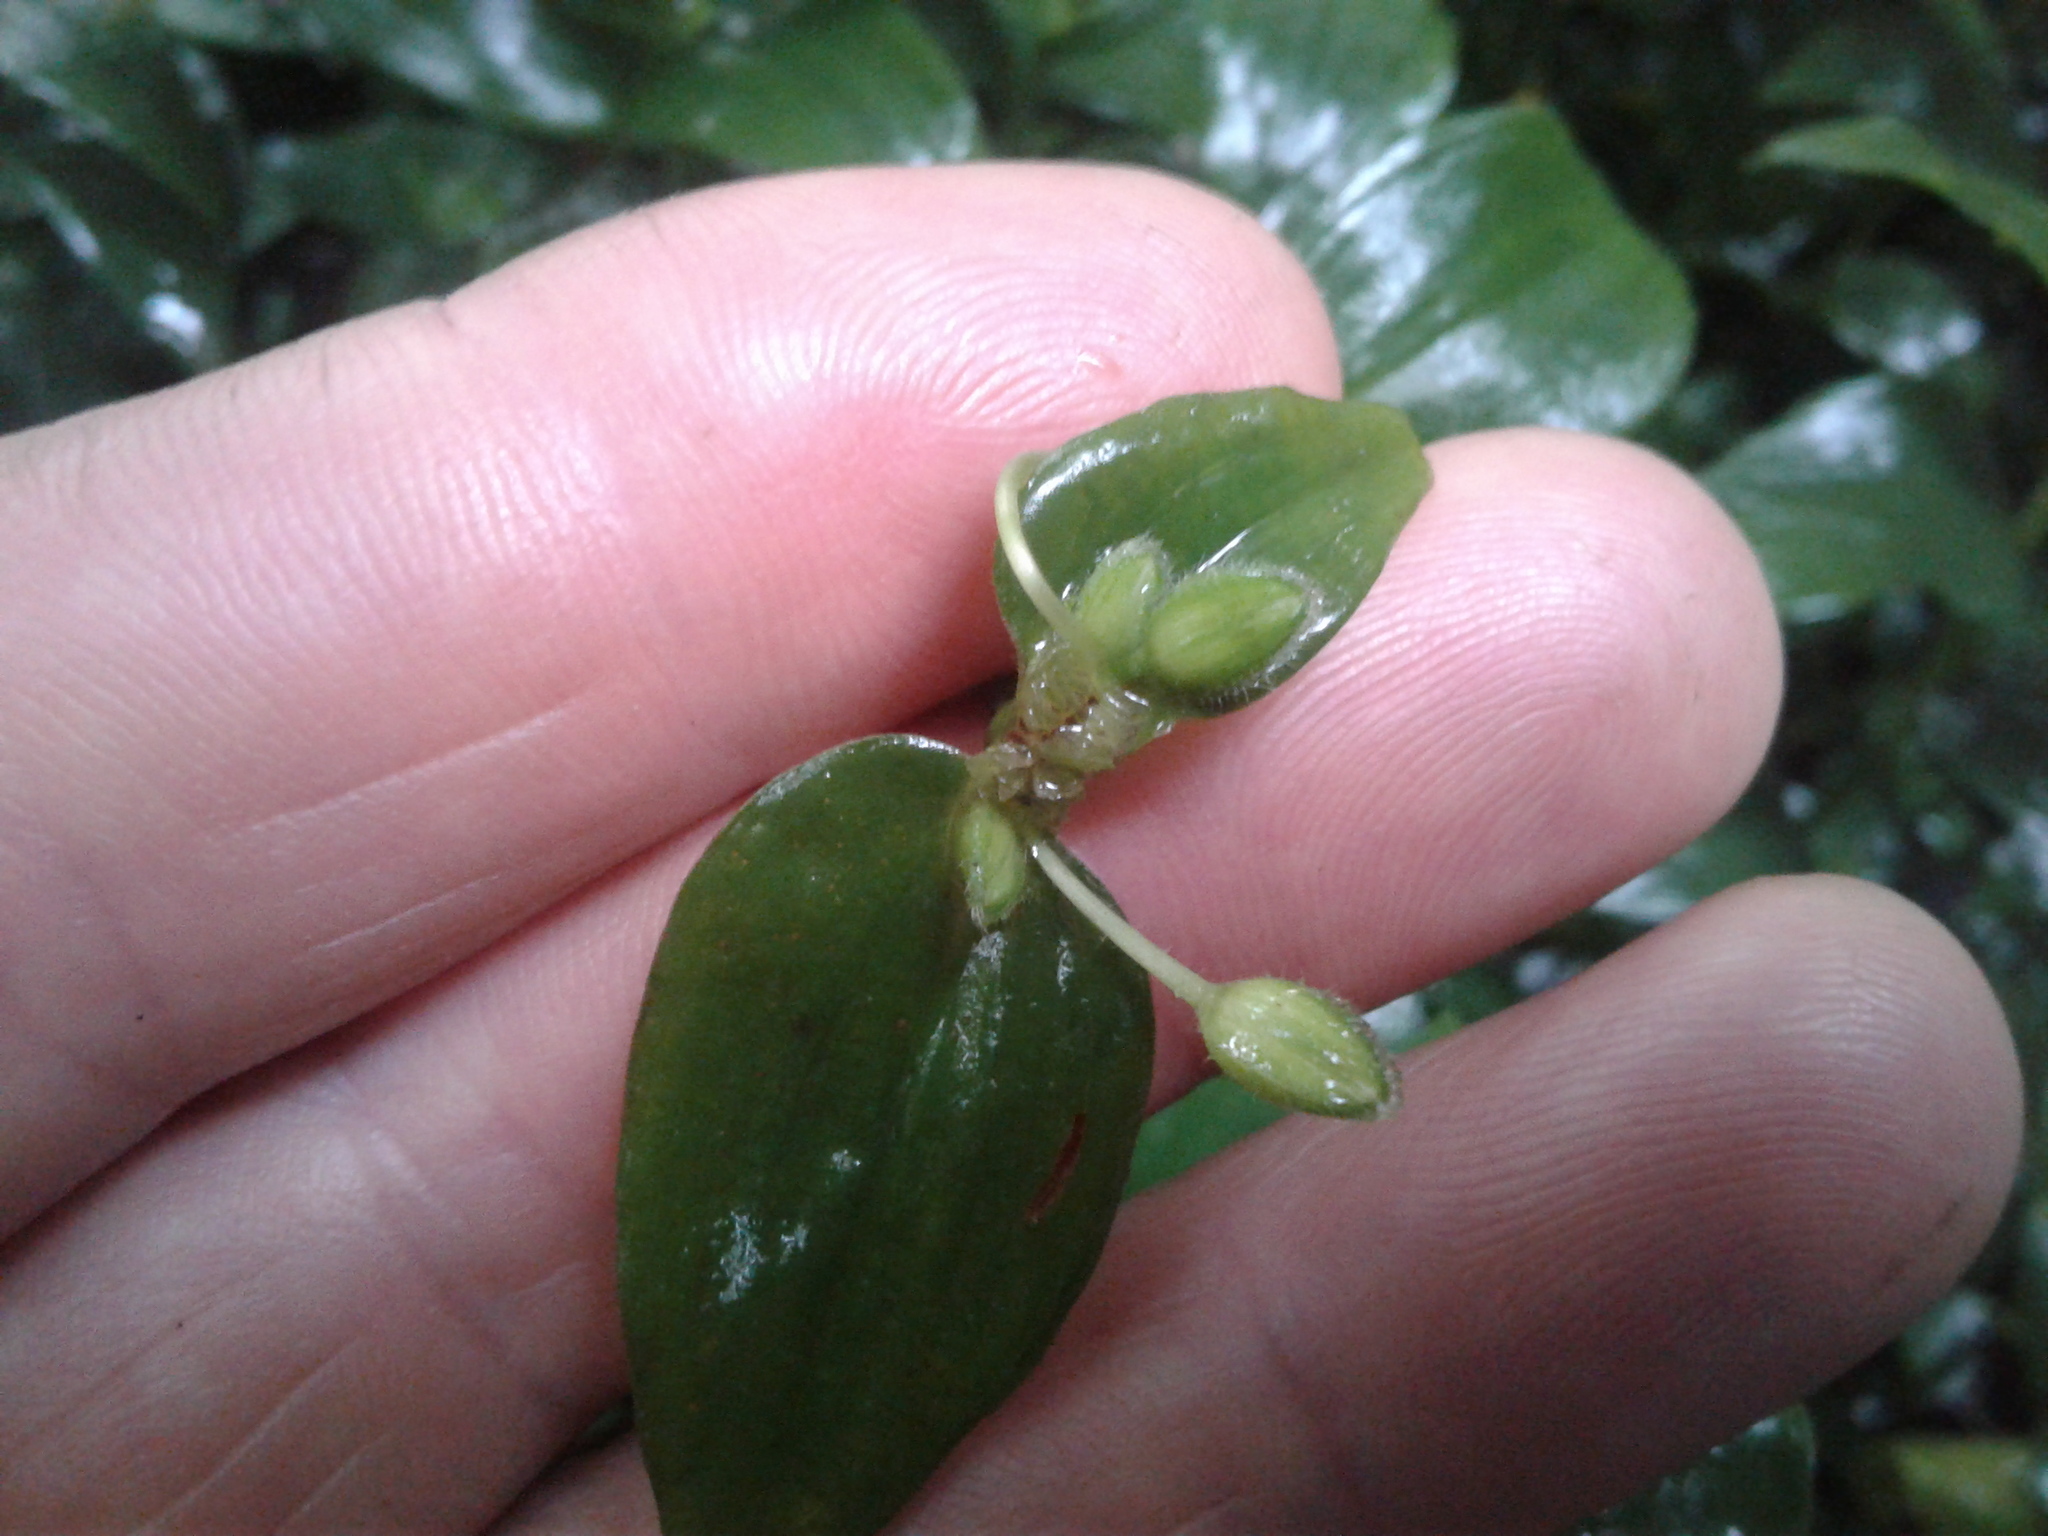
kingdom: Plantae
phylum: Tracheophyta
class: Liliopsida
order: Commelinales
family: Commelinaceae
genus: Tradescantia
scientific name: Tradescantia fluminensis
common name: Wandering-jew
